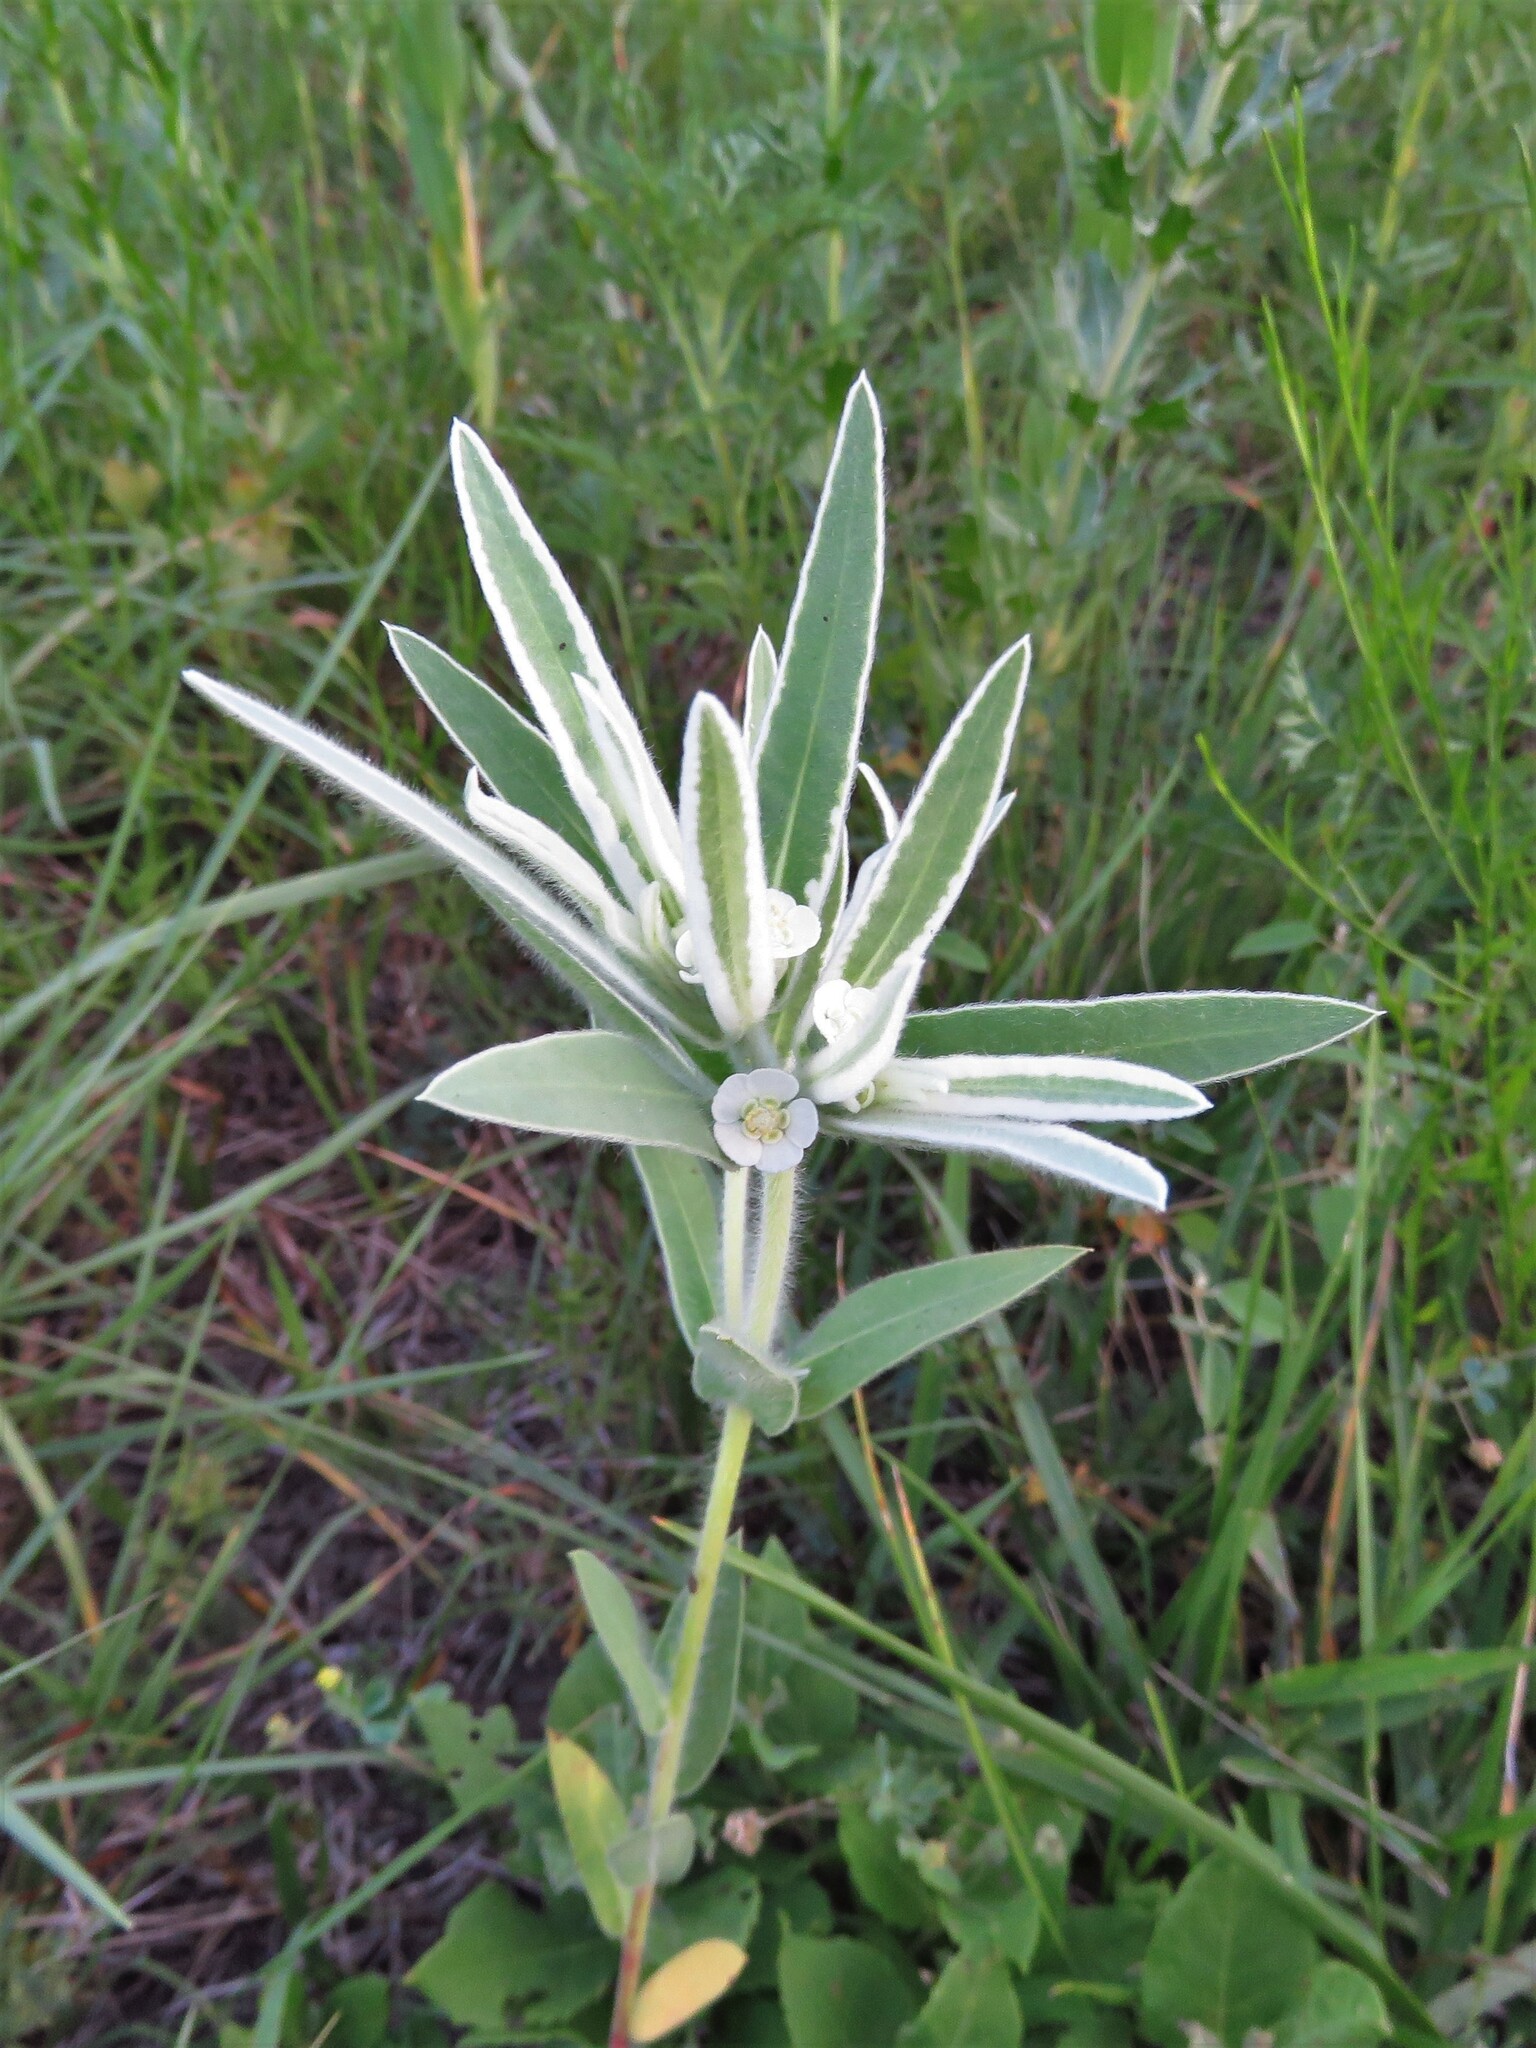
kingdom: Plantae
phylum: Tracheophyta
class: Magnoliopsida
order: Malpighiales
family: Euphorbiaceae
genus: Euphorbia
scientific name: Euphorbia bicolor
